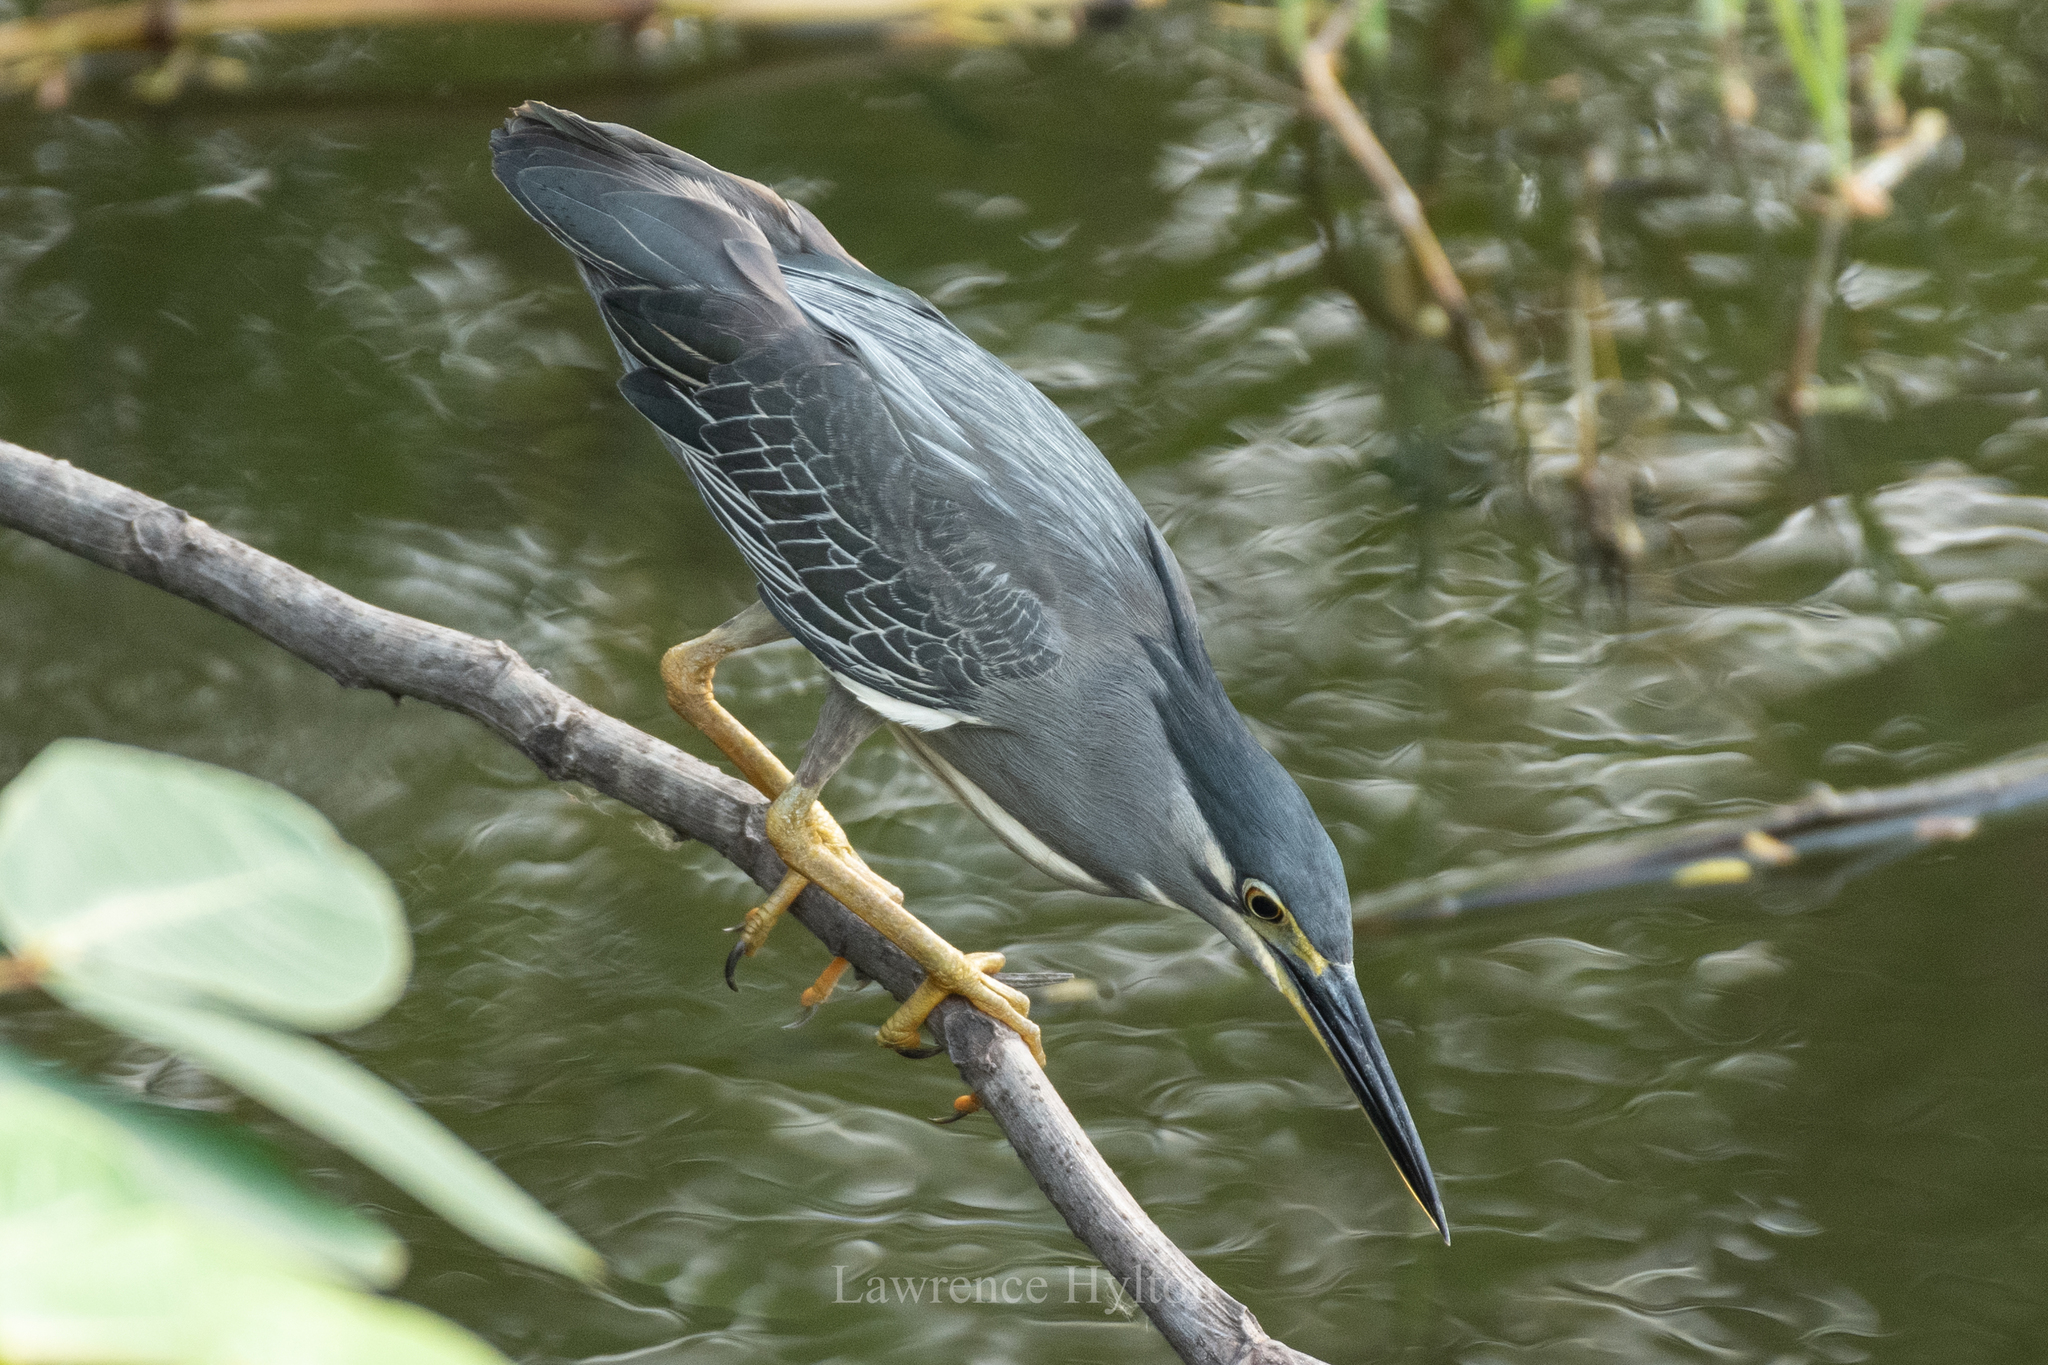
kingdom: Animalia
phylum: Chordata
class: Aves
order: Pelecaniformes
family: Ardeidae
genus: Butorides
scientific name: Butorides striata
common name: Striated heron
